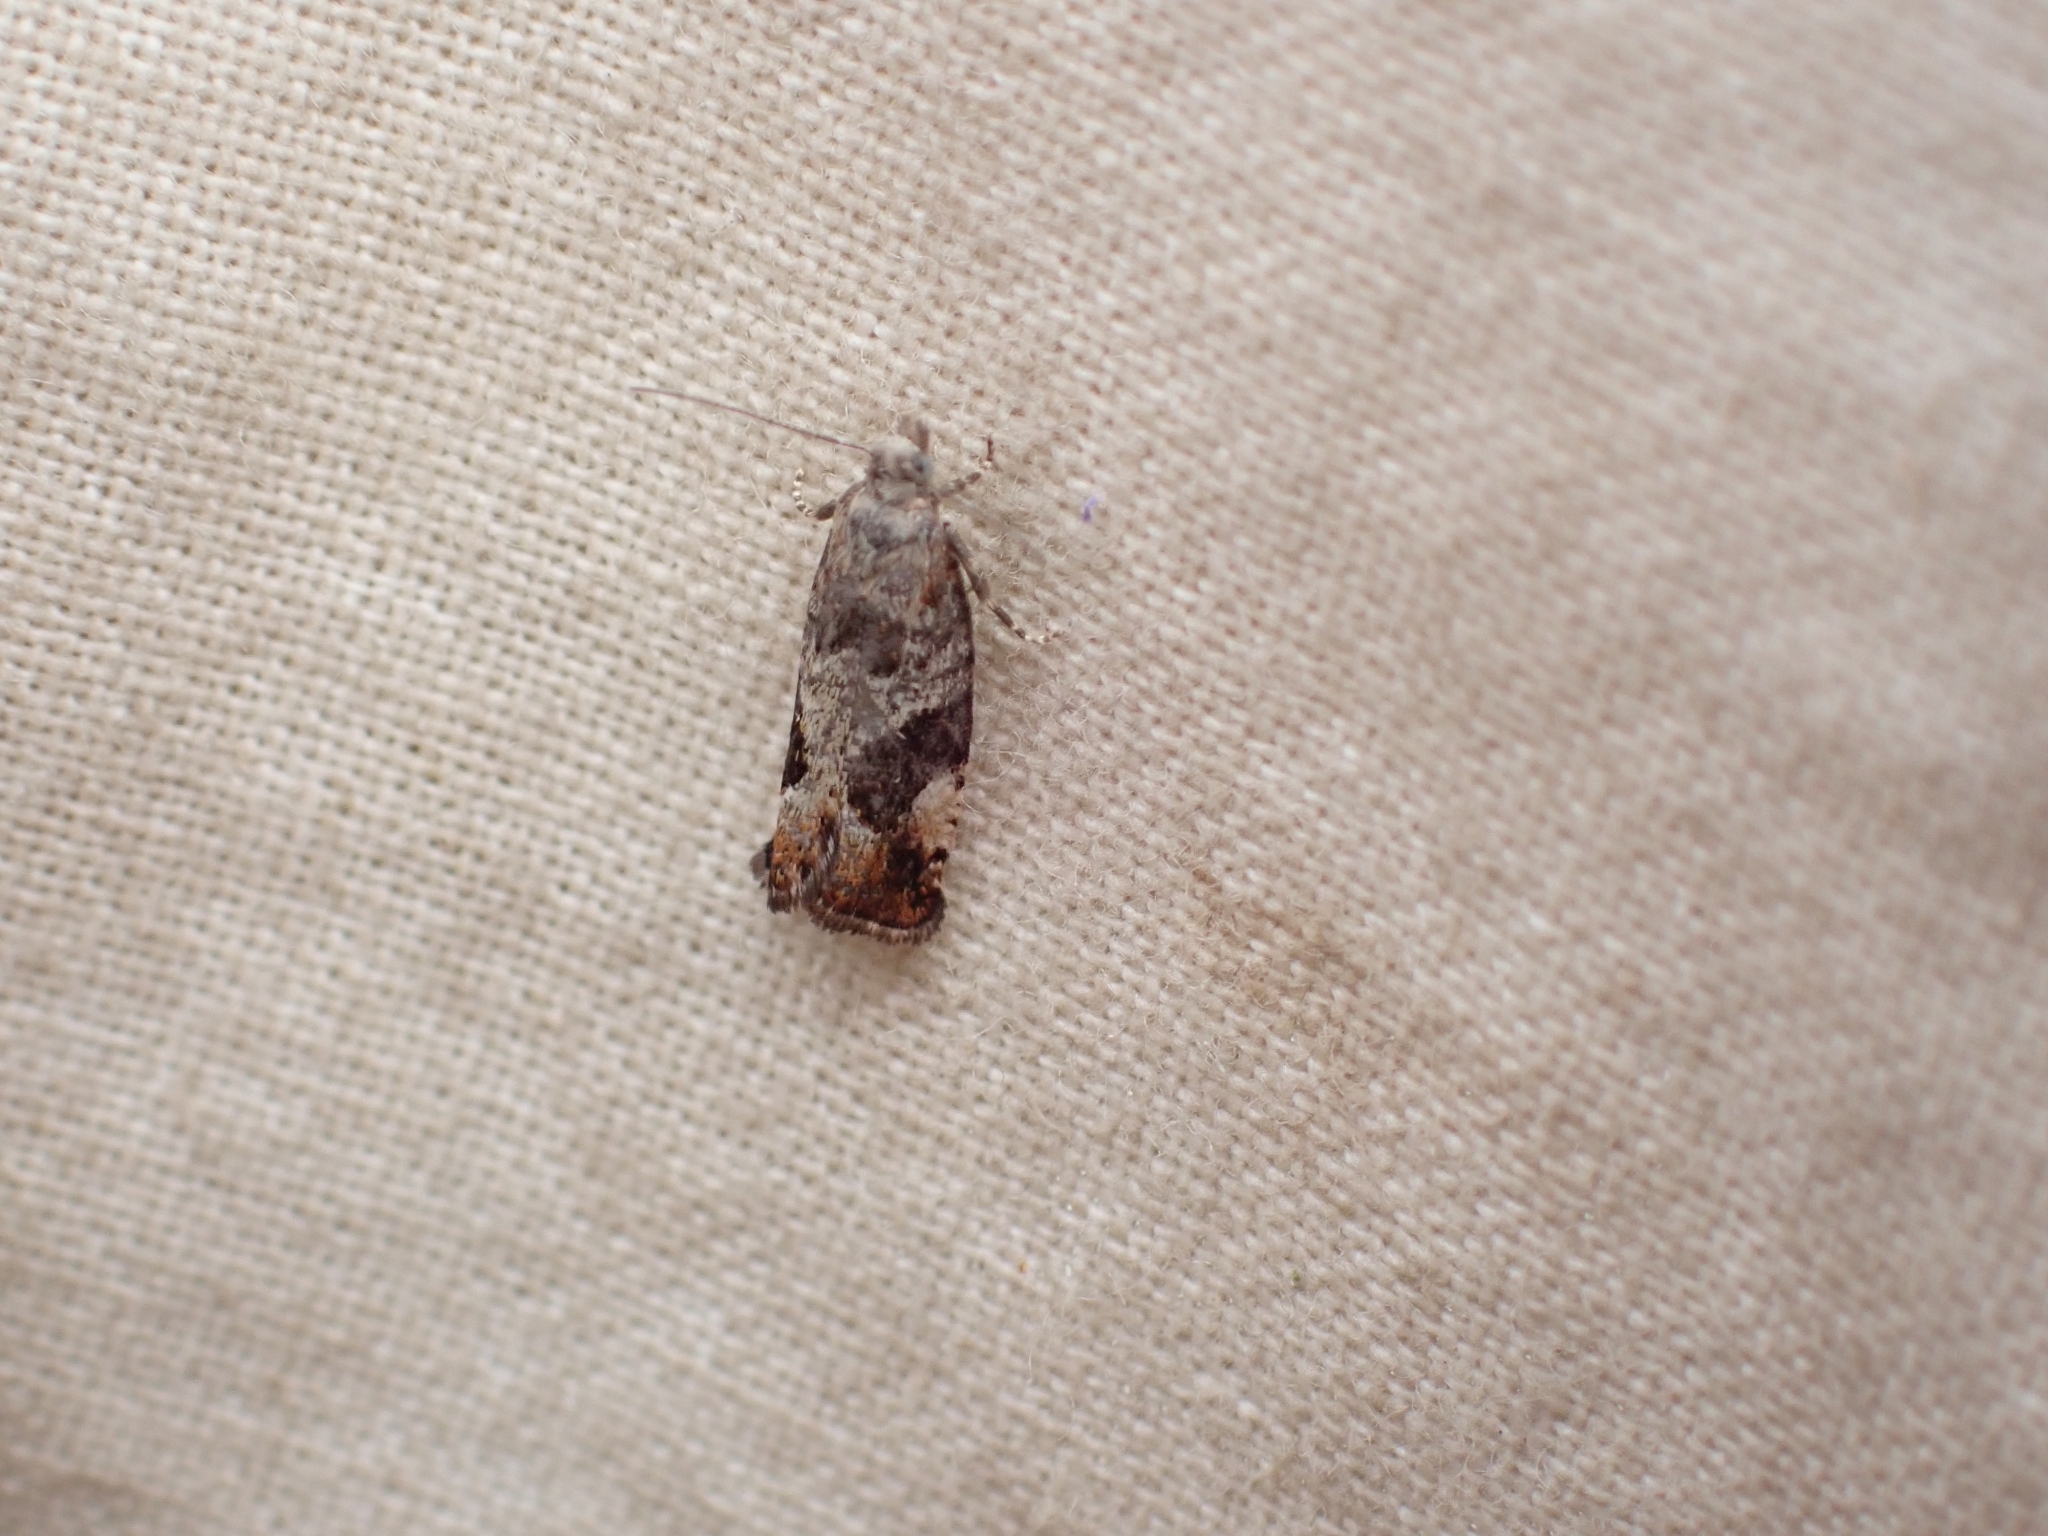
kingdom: Animalia
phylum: Arthropoda
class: Insecta
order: Lepidoptera
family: Tortricidae
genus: Epinotia
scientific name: Epinotia medioplagata
